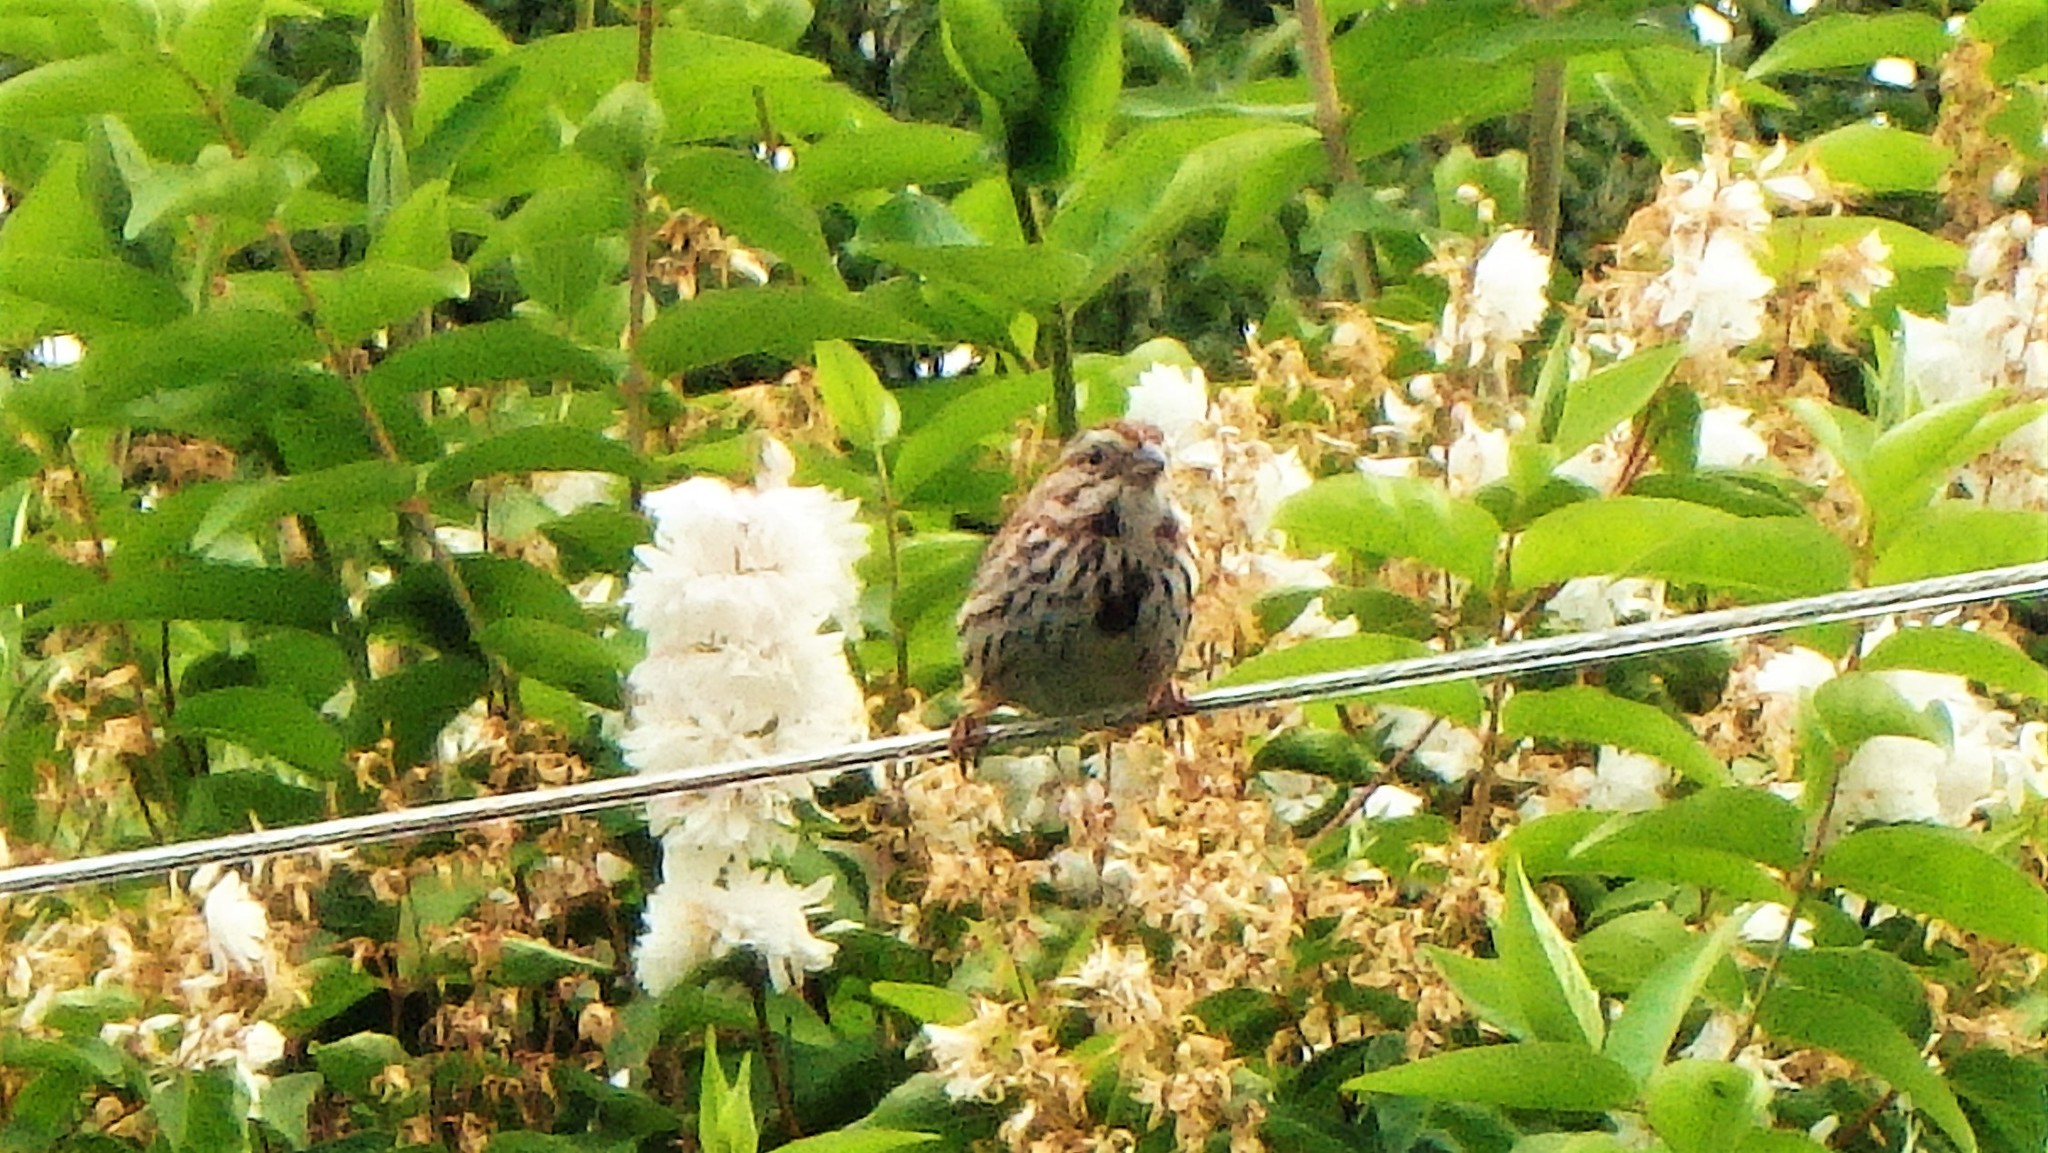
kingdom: Animalia
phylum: Chordata
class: Aves
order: Passeriformes
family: Passerellidae
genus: Melospiza
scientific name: Melospiza melodia
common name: Song sparrow
